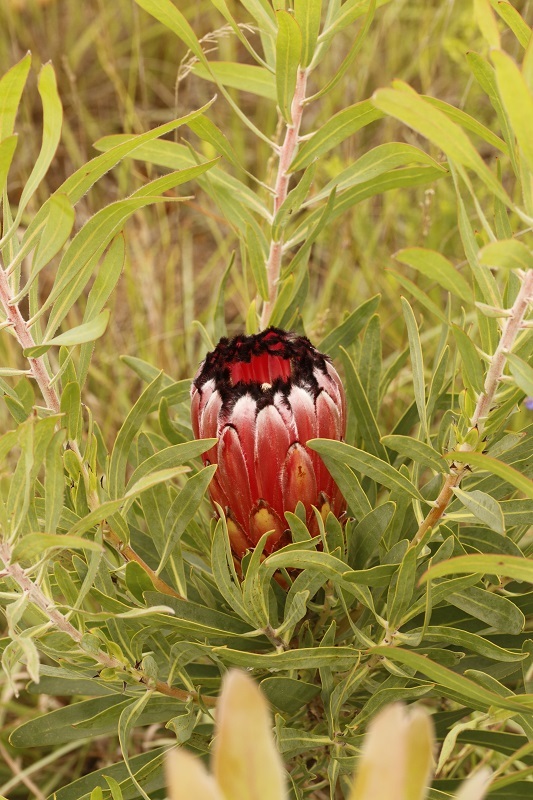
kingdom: Plantae
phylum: Tracheophyta
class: Magnoliopsida
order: Proteales
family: Proteaceae
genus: Protea
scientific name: Protea neriifolia
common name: Blue sugarbush
